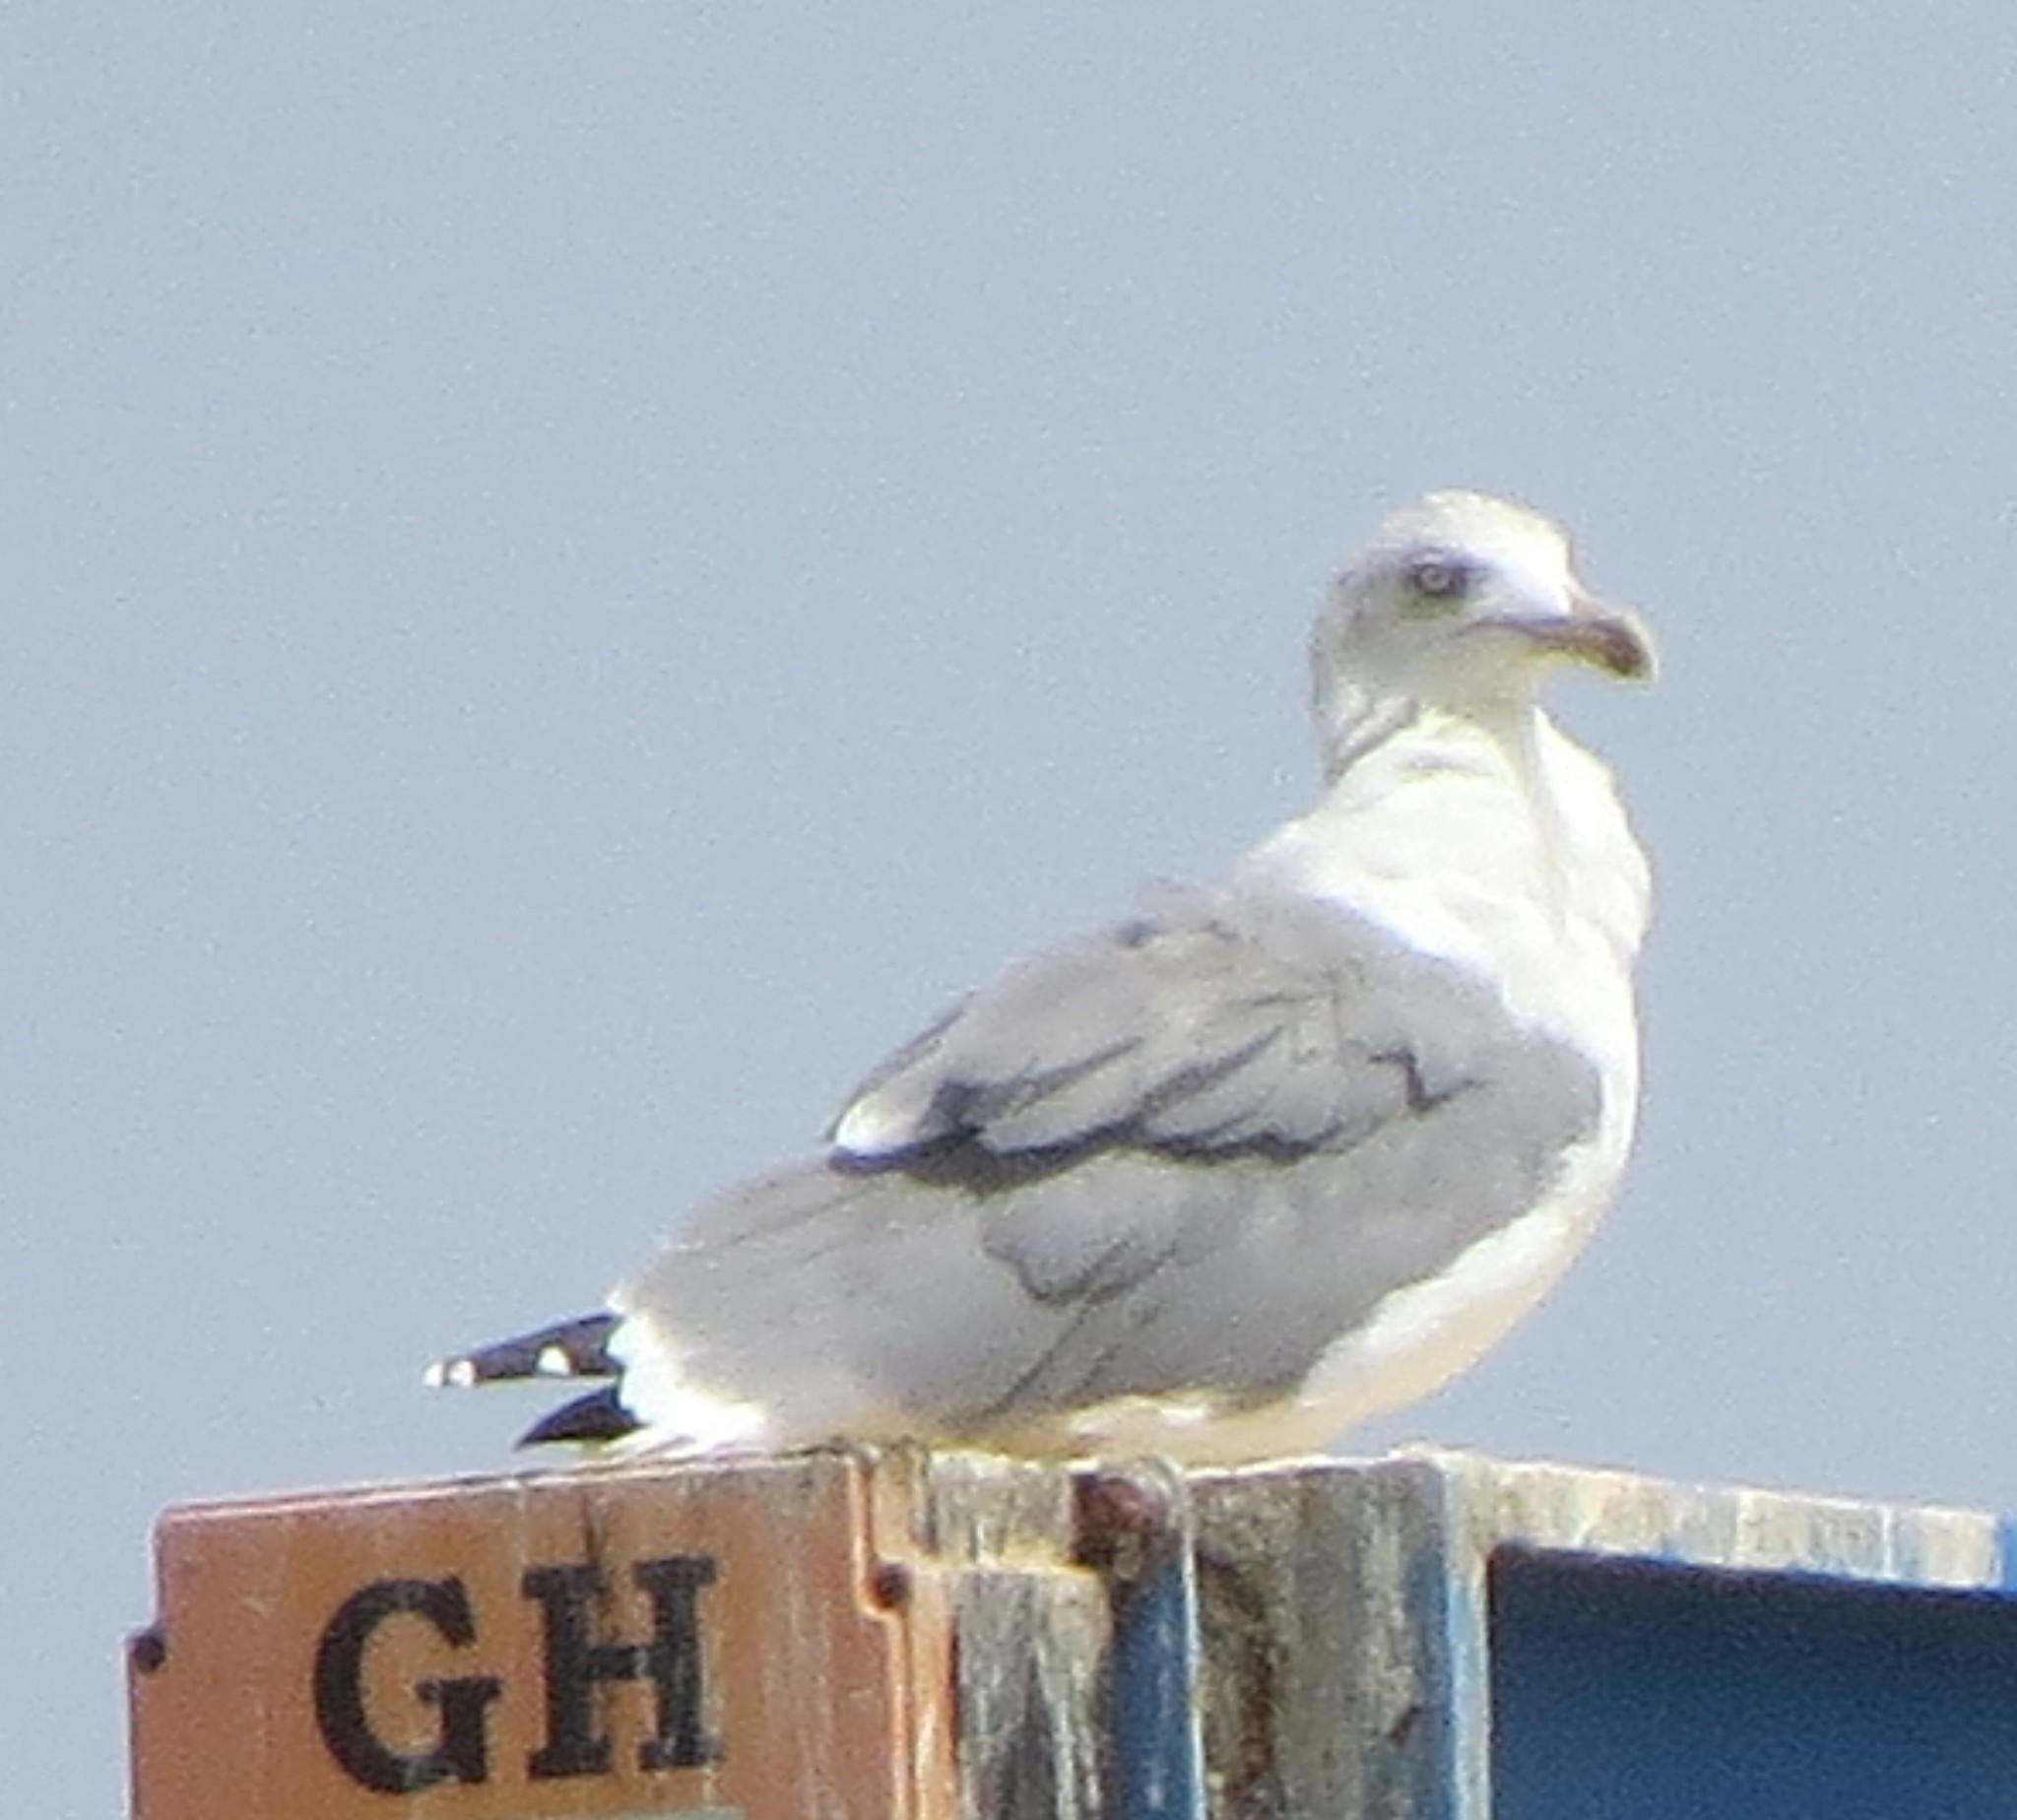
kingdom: Animalia
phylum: Chordata
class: Aves
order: Charadriiformes
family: Laridae
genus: Larus
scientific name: Larus michahellis
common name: Yellow-legged gull
